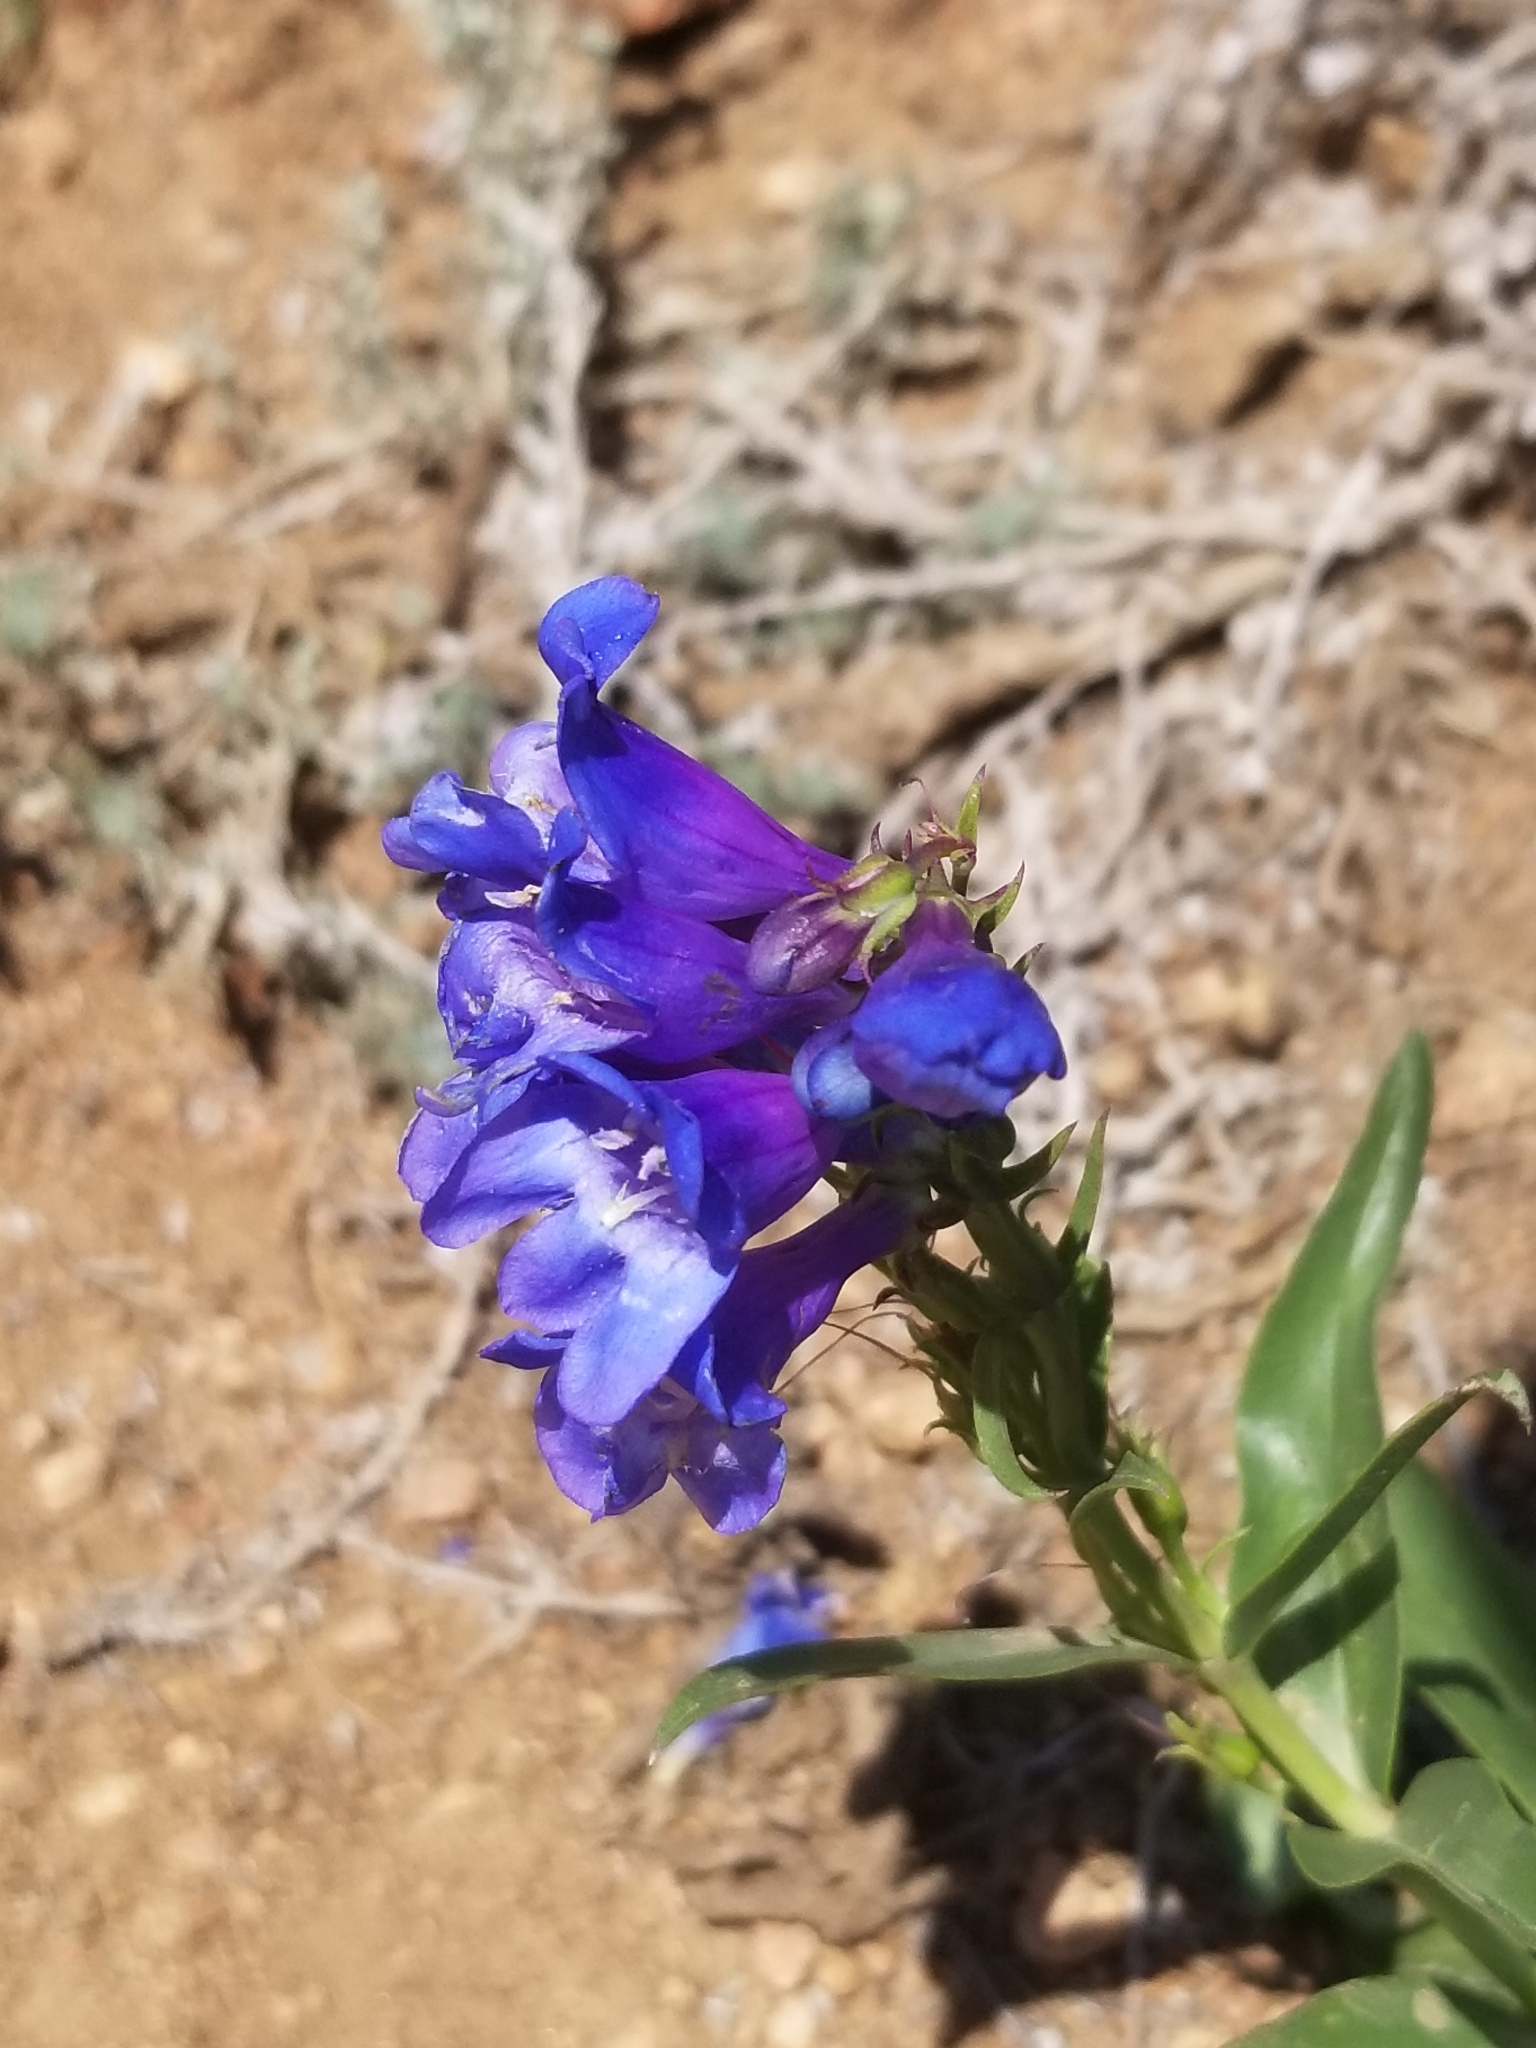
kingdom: Plantae
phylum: Tracheophyta
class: Magnoliopsida
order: Lamiales
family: Plantaginaceae
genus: Penstemon
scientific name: Penstemon glaber
